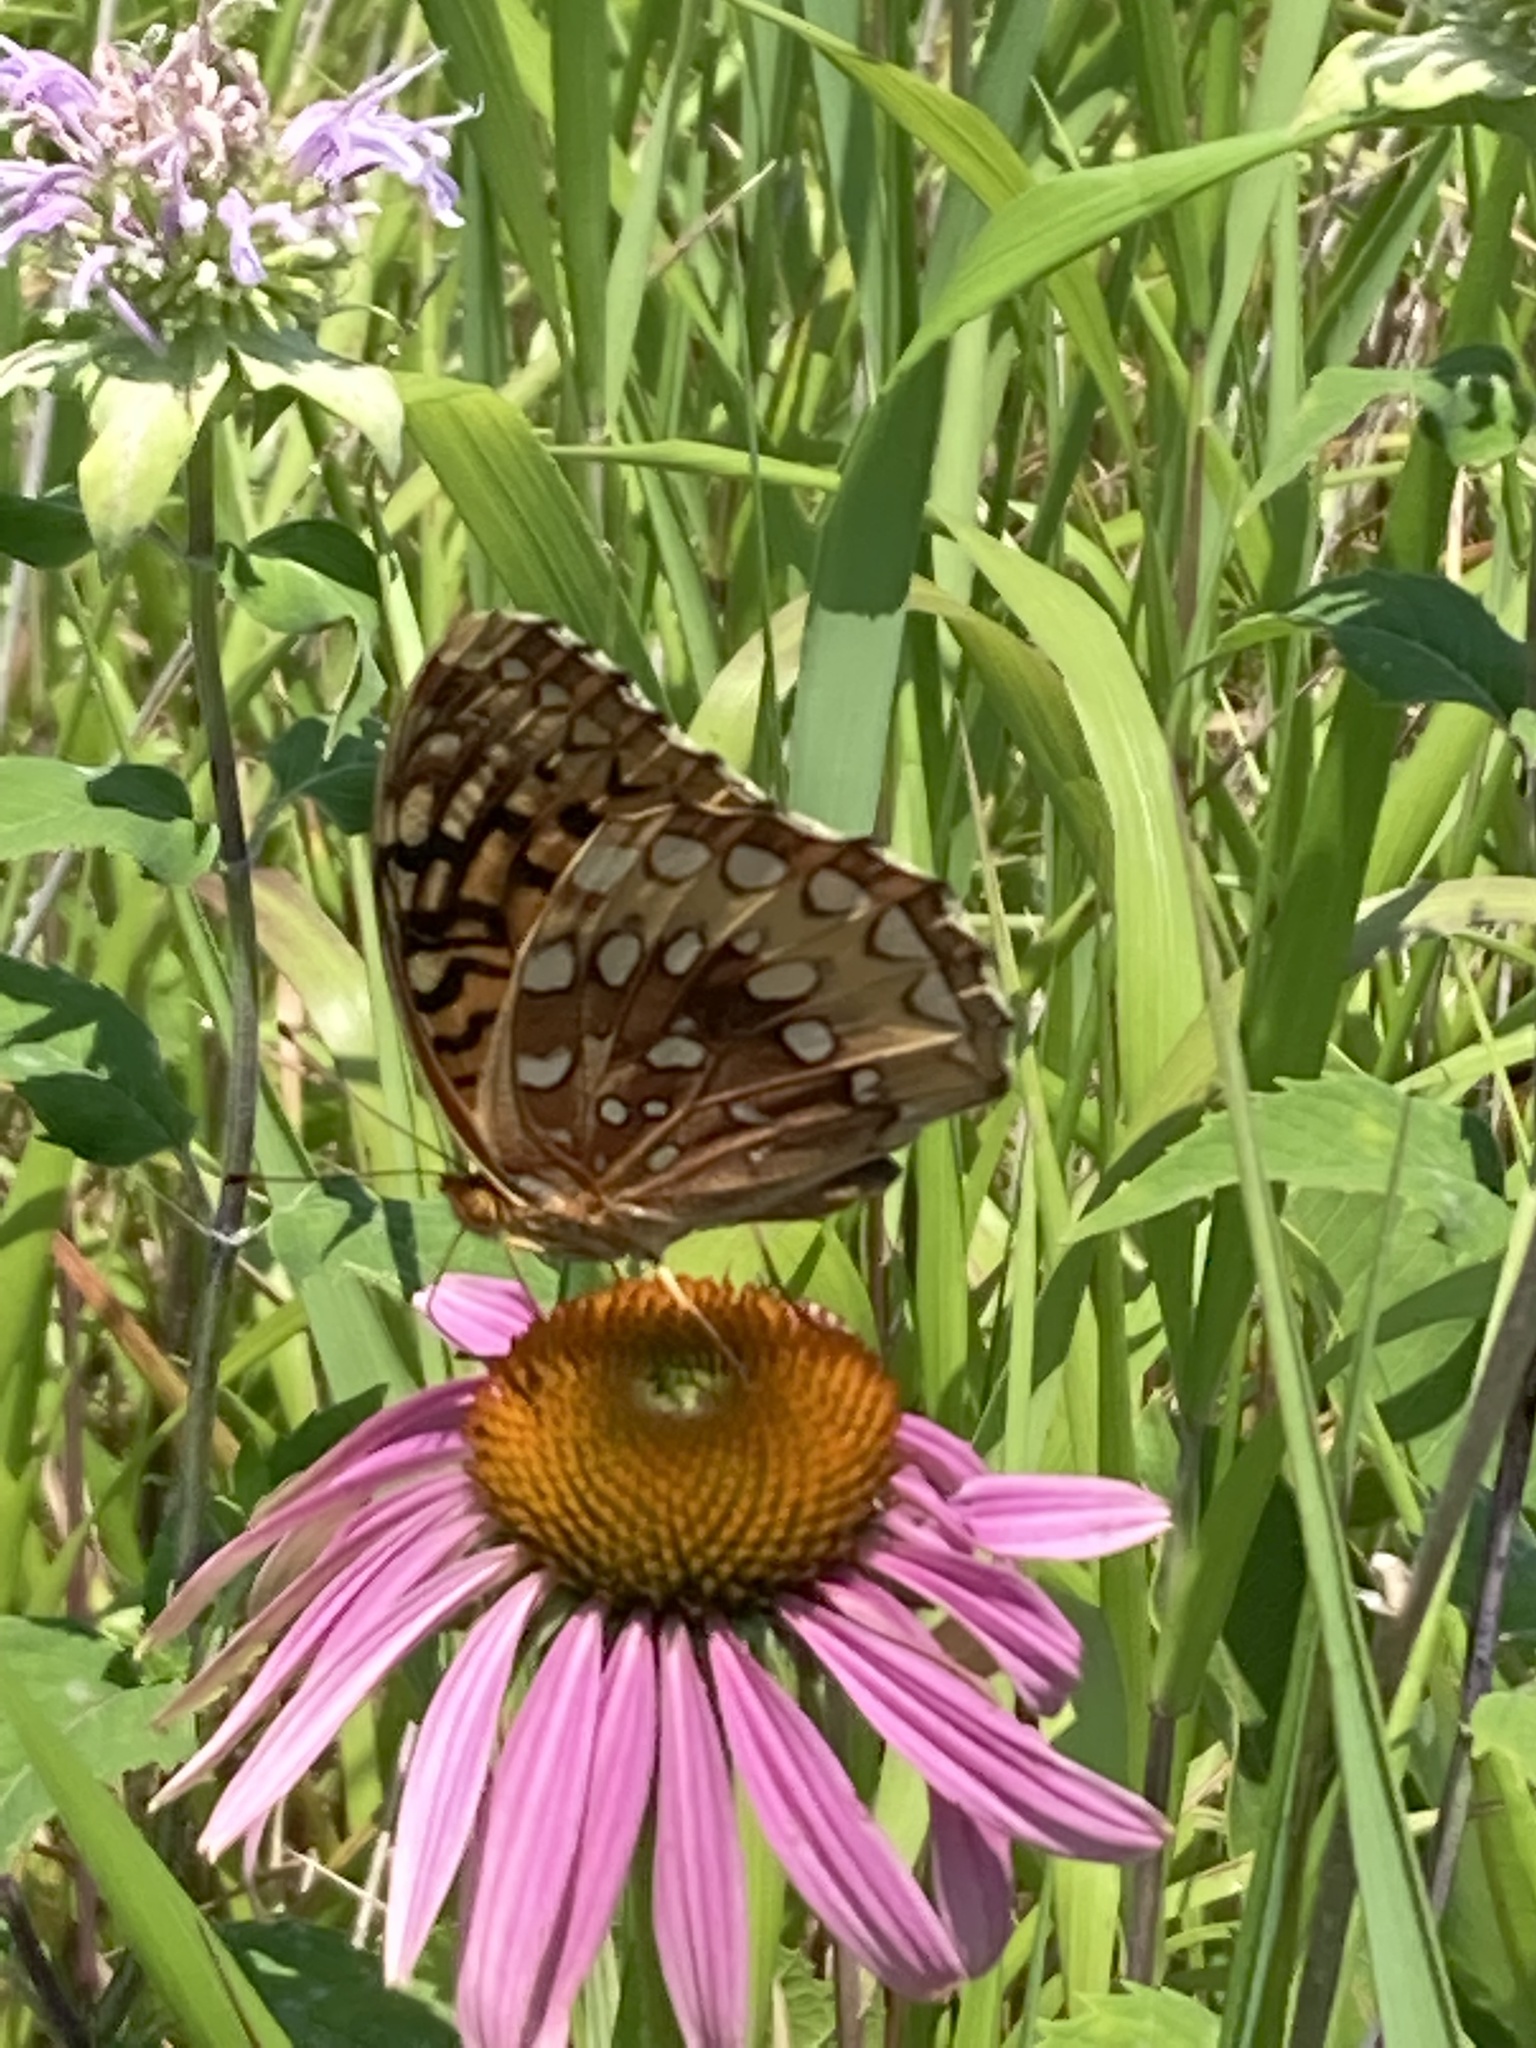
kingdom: Animalia
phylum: Arthropoda
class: Insecta
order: Lepidoptera
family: Nymphalidae
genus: Speyeria
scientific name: Speyeria cybele
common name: Great spangled fritillary
